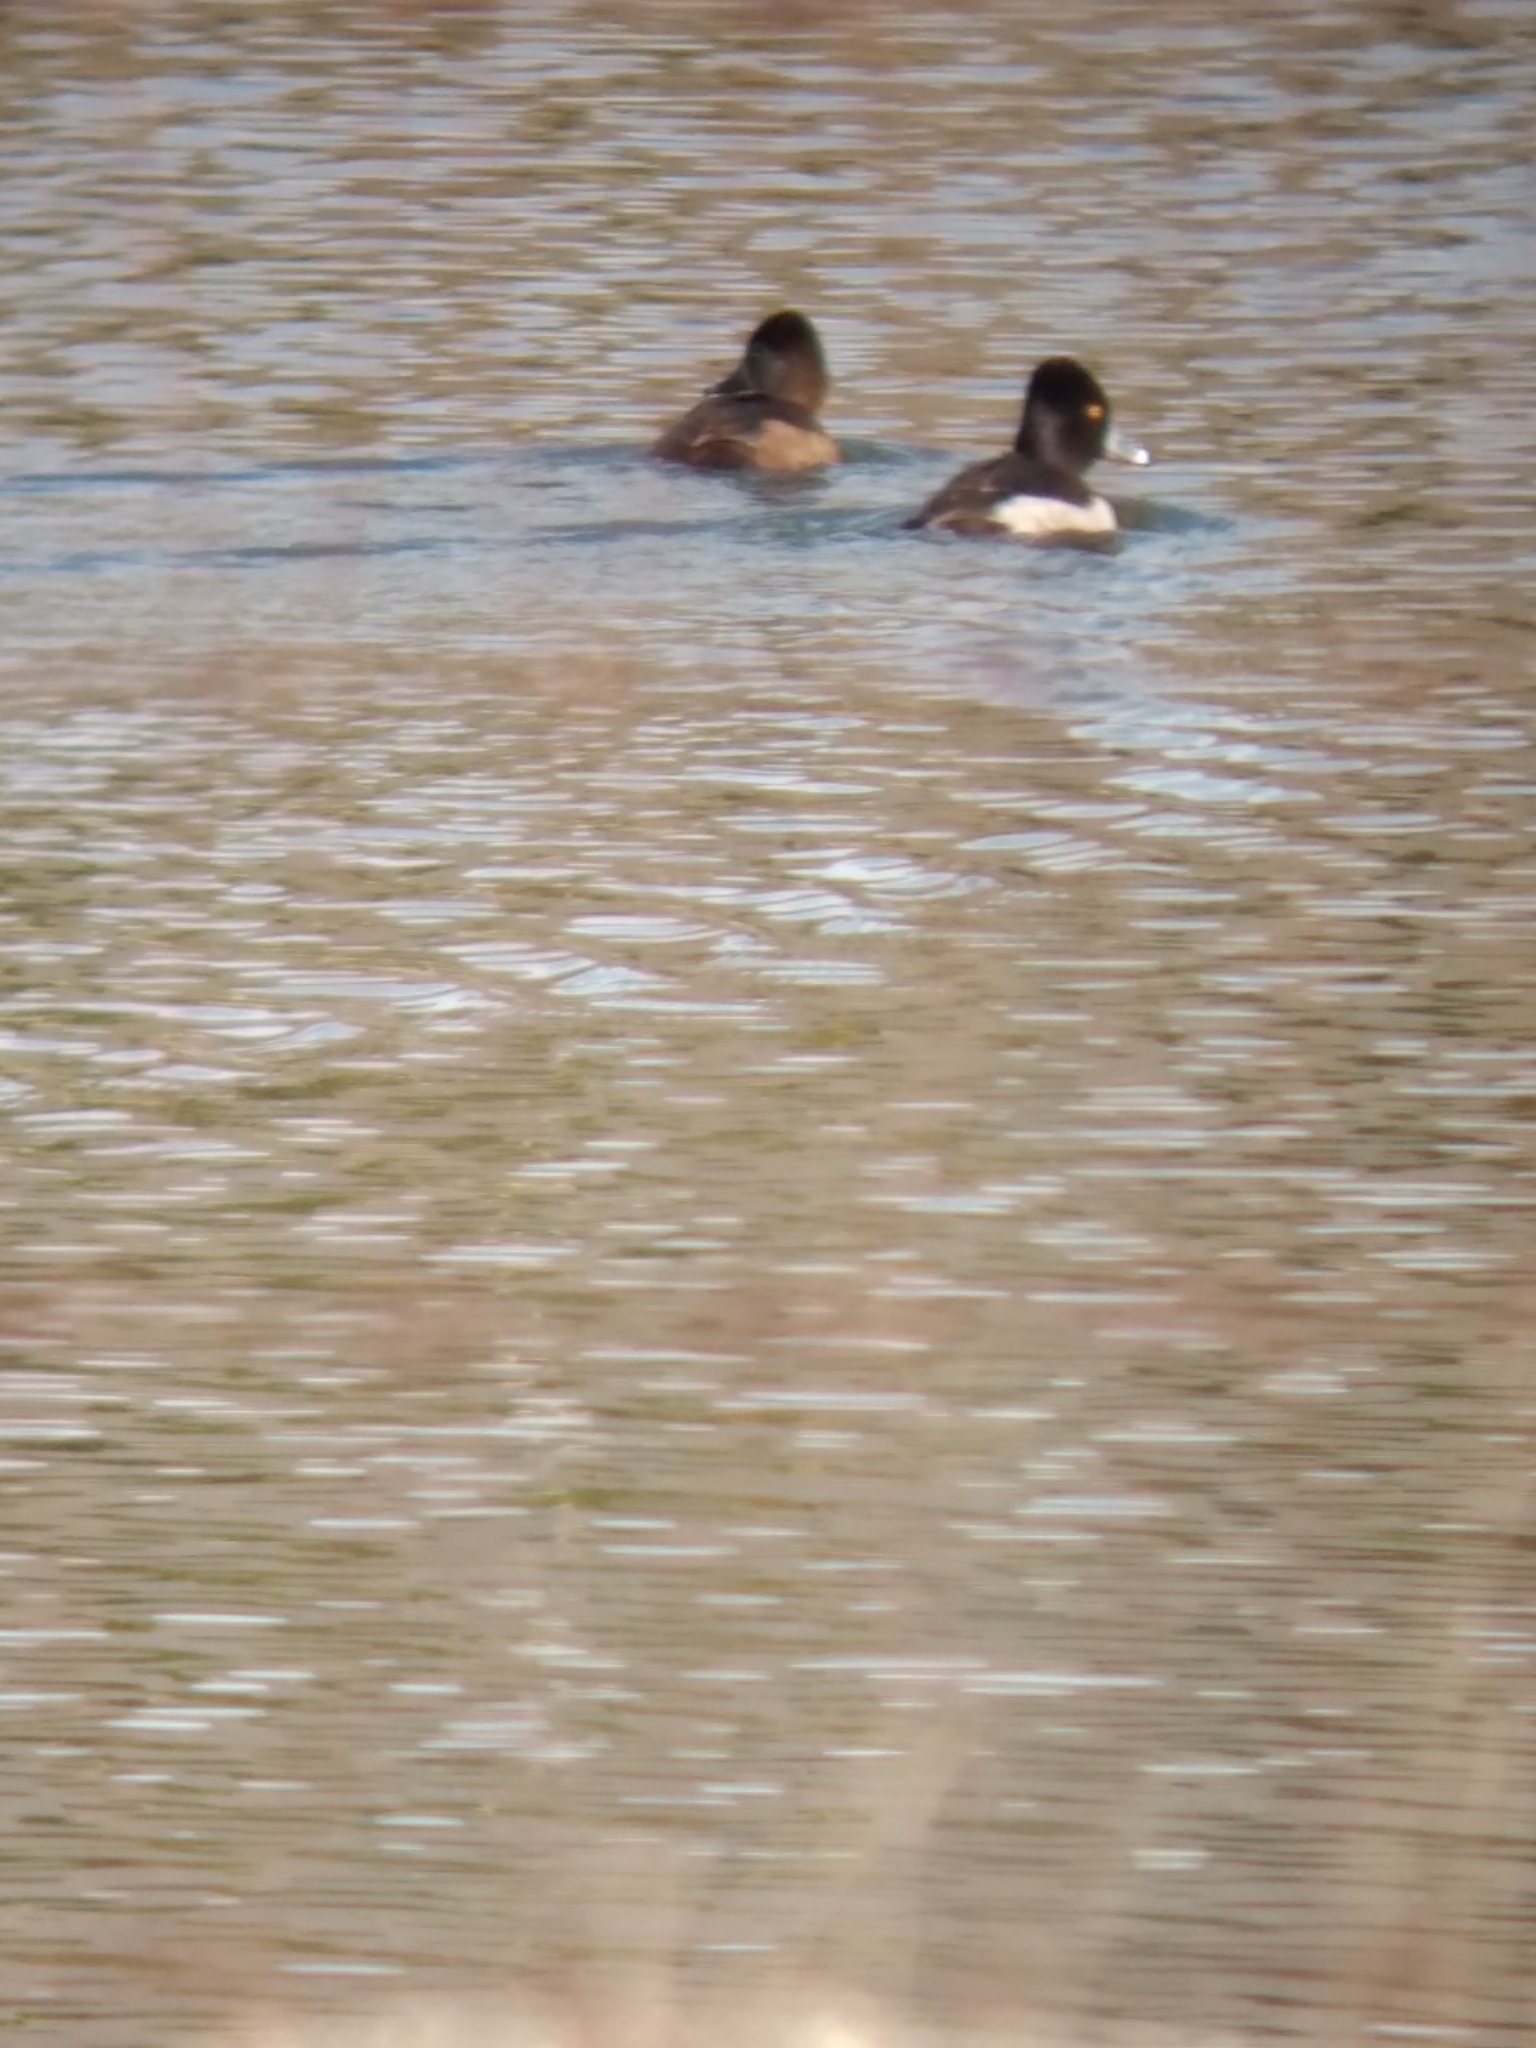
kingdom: Animalia
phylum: Chordata
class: Aves
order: Anseriformes
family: Anatidae
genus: Aythya
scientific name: Aythya collaris
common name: Ring-necked duck
